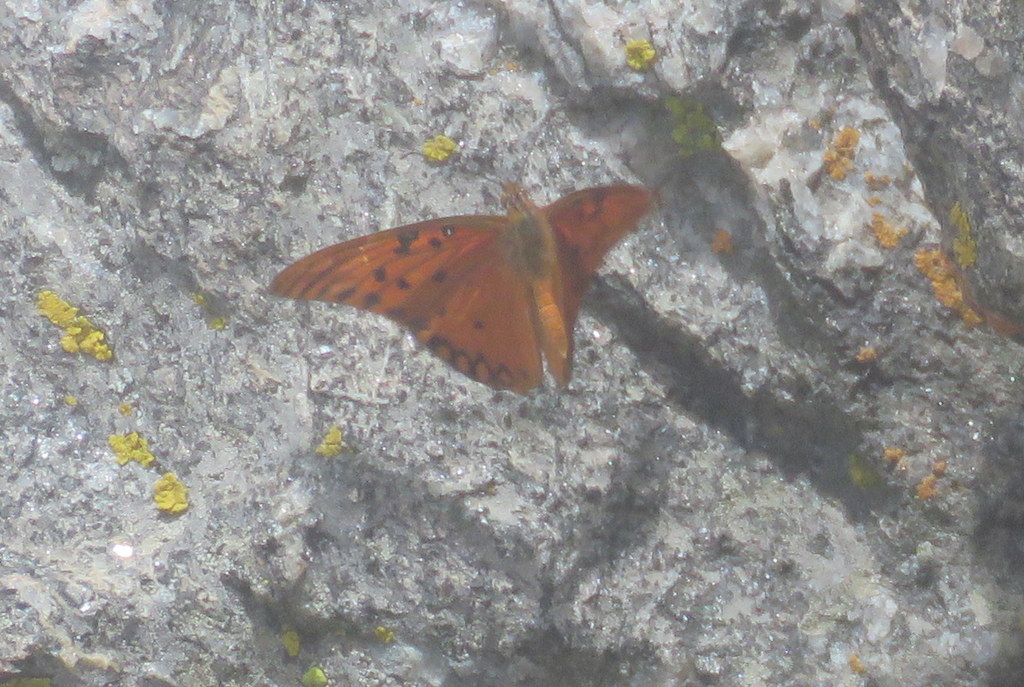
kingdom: Animalia
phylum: Arthropoda
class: Insecta
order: Lepidoptera
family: Nymphalidae
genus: Dione
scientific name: Dione vanillae
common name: Gulf fritillary
